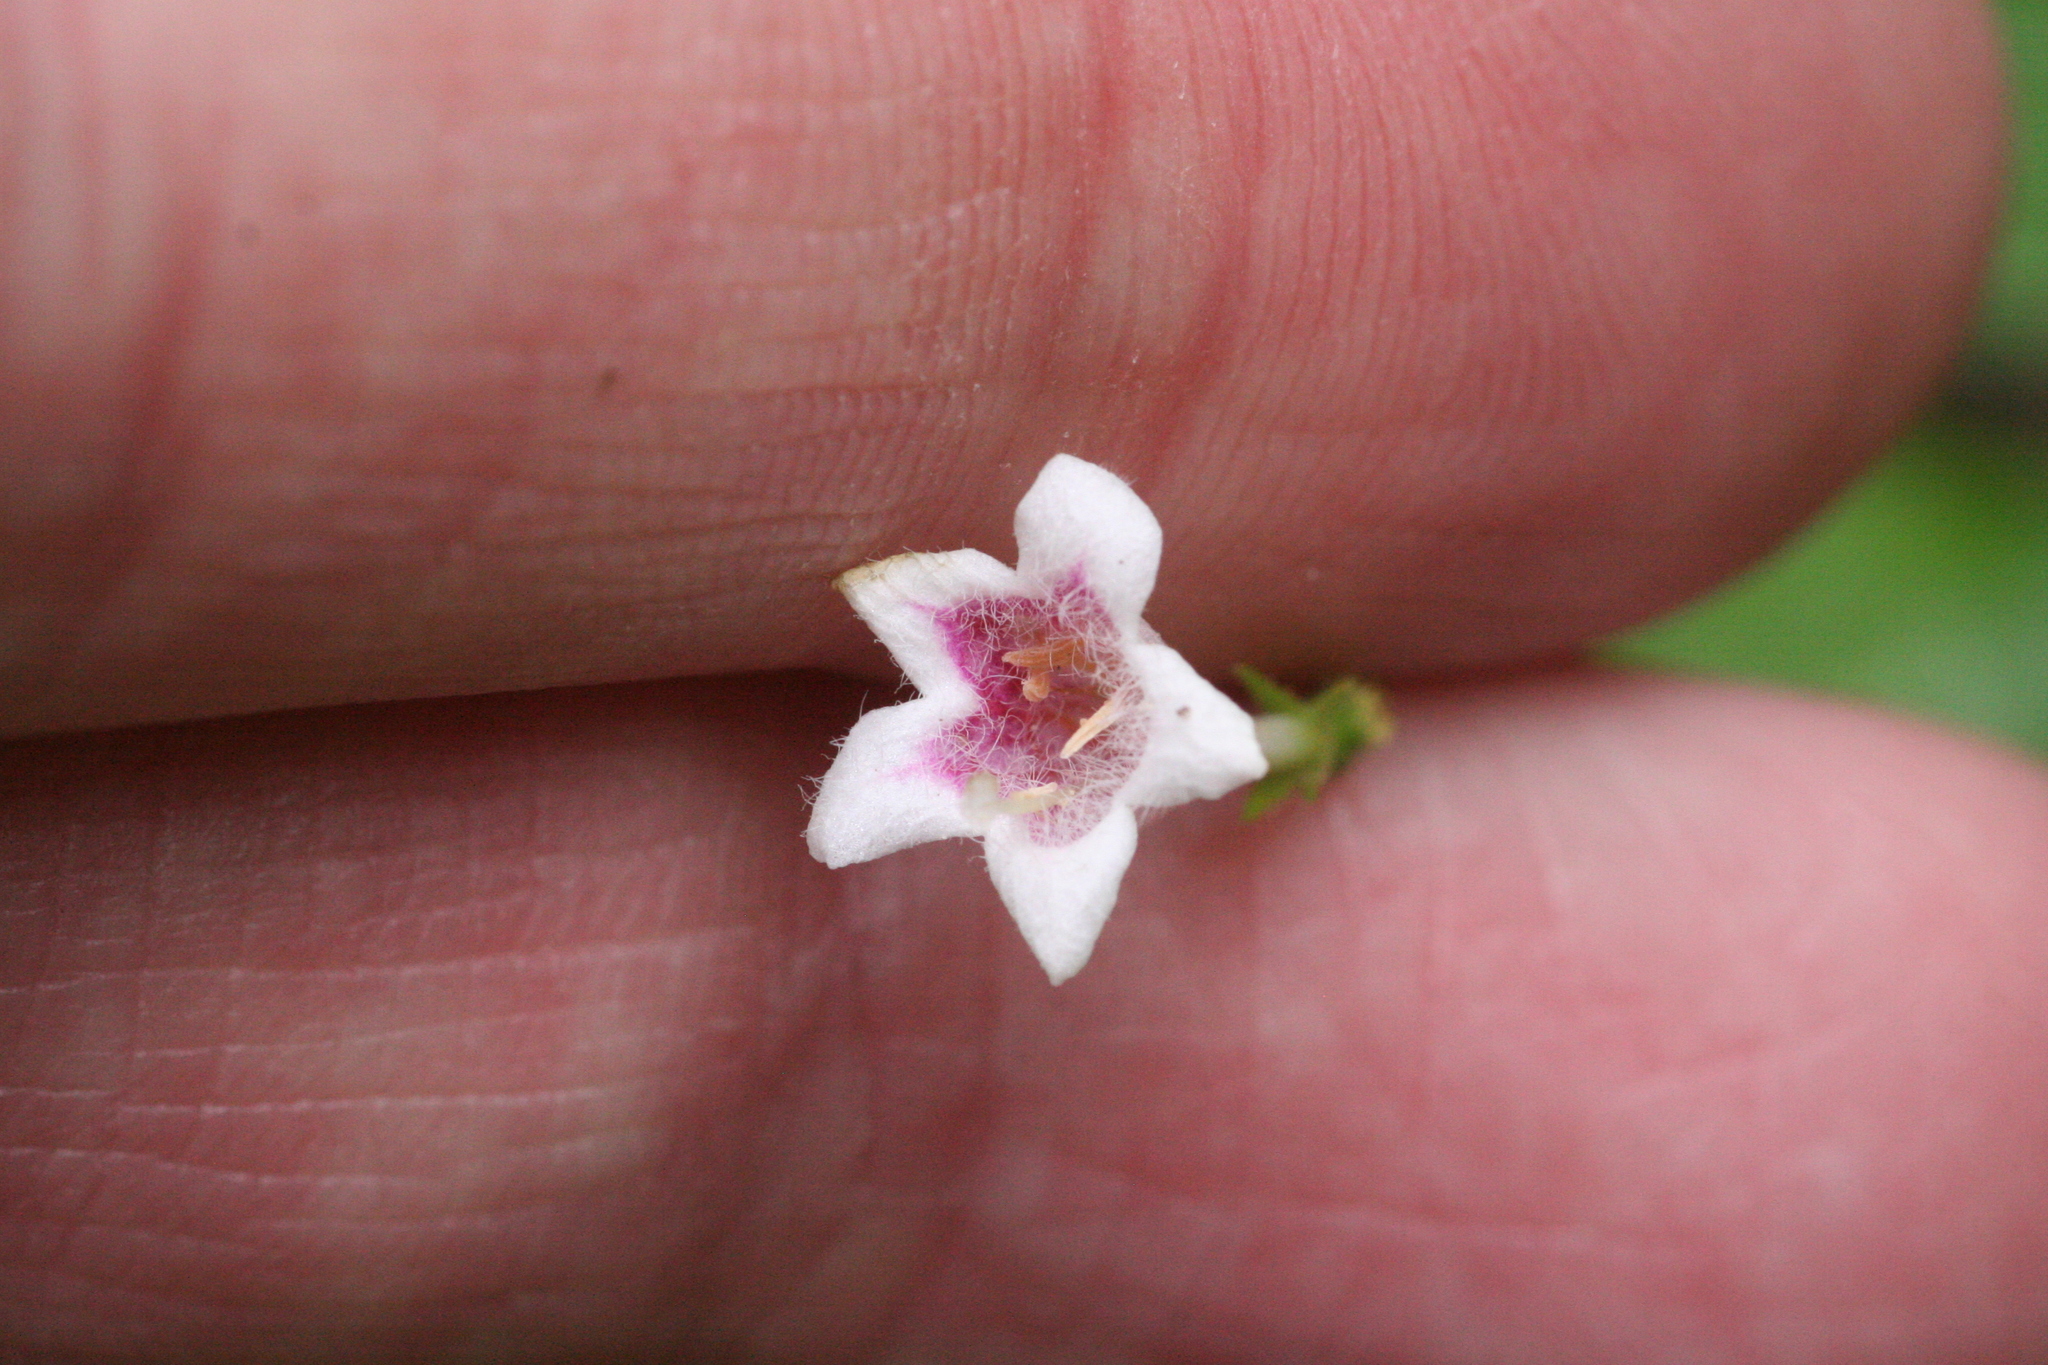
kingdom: Plantae
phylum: Tracheophyta
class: Magnoliopsida
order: Dipsacales
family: Caprifoliaceae
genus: Linnaea
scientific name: Linnaea borealis
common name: Twinflower
